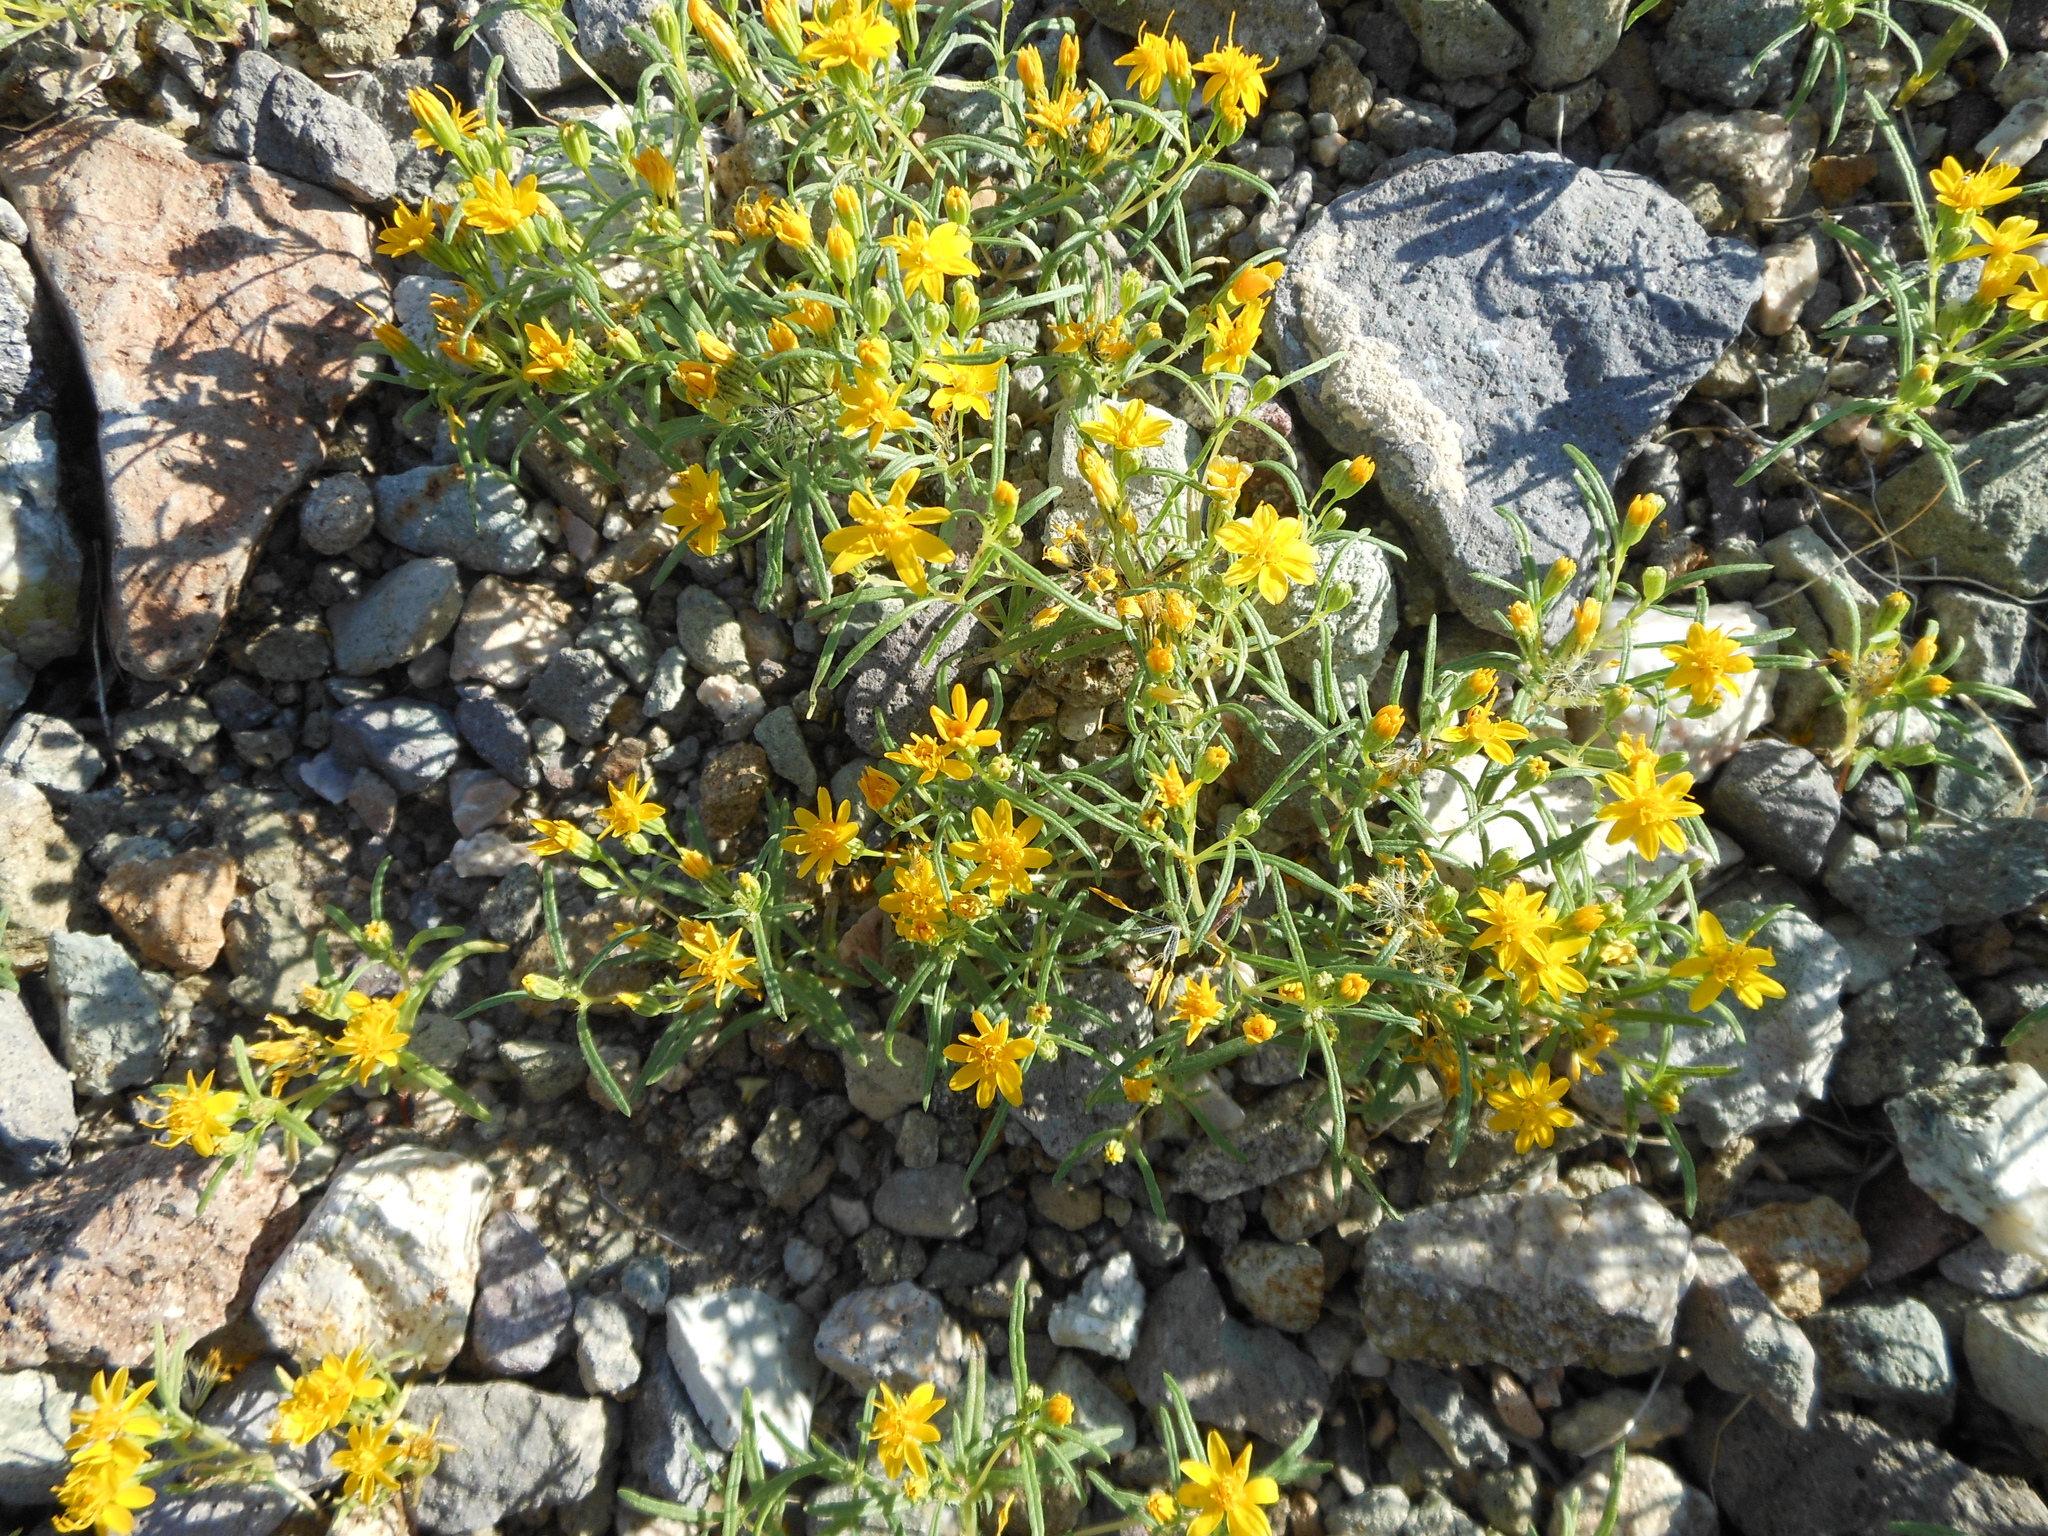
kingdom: Plantae
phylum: Tracheophyta
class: Magnoliopsida
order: Asterales
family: Asteraceae
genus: Pectis
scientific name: Pectis papposa
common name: Many-bristle chinchweed
